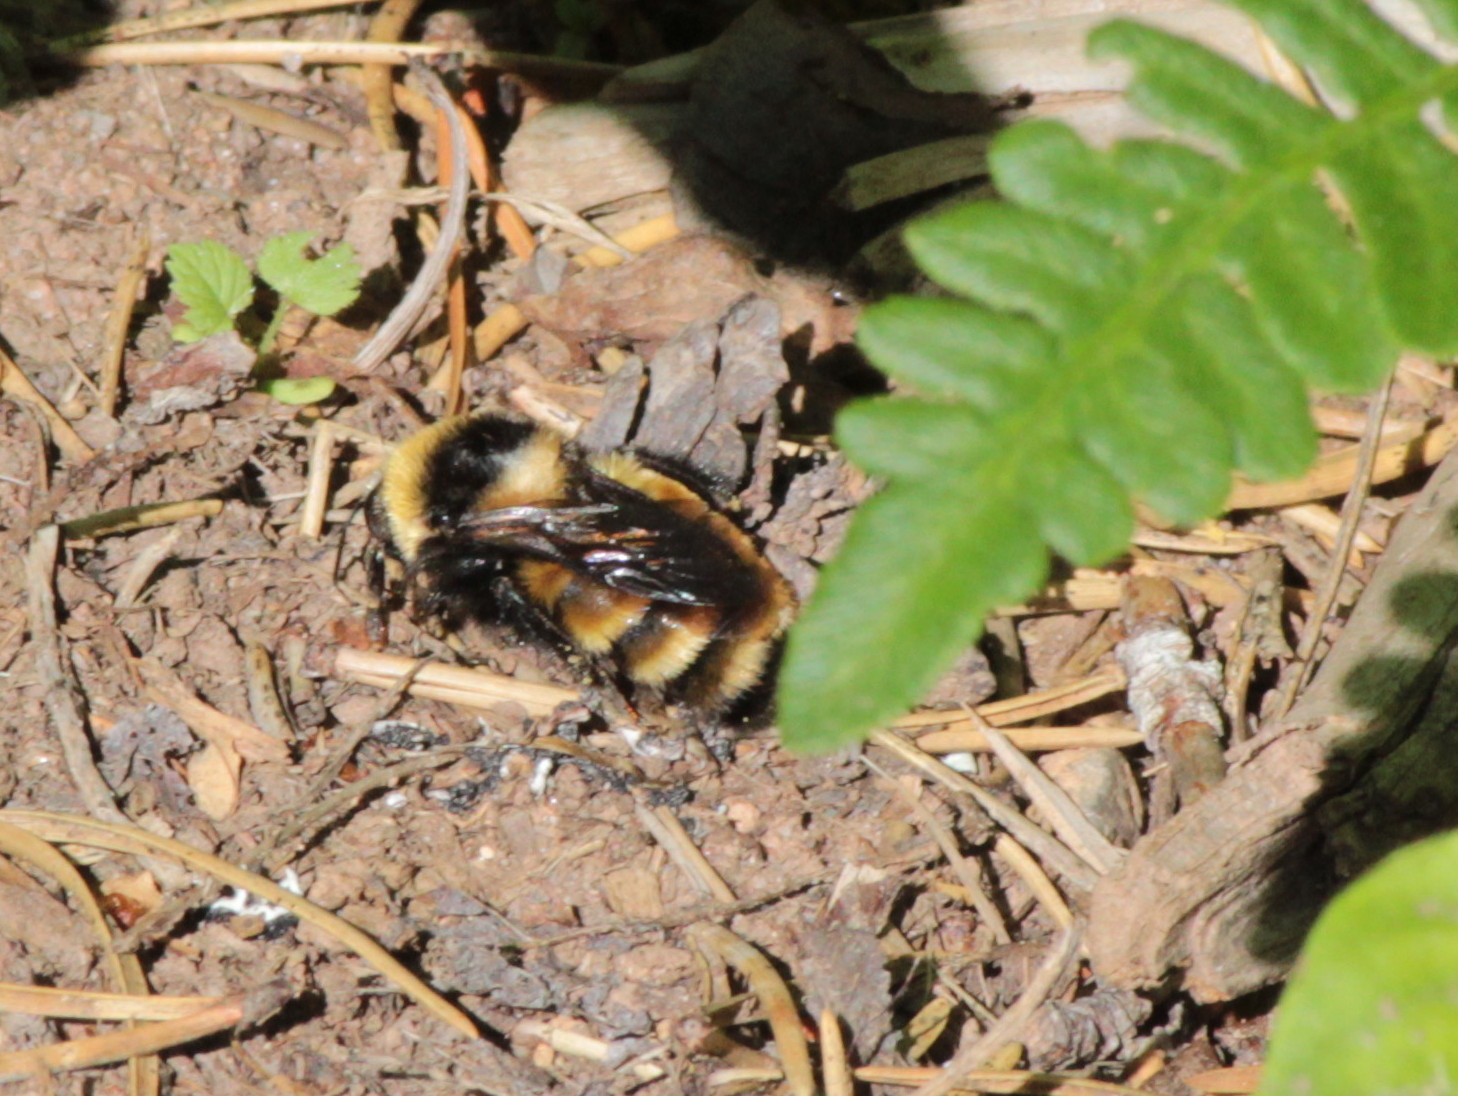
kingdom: Animalia
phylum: Arthropoda
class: Insecta
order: Hymenoptera
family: Apidae
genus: Bombus
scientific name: Bombus borealis
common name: Northern amber bumble bee
